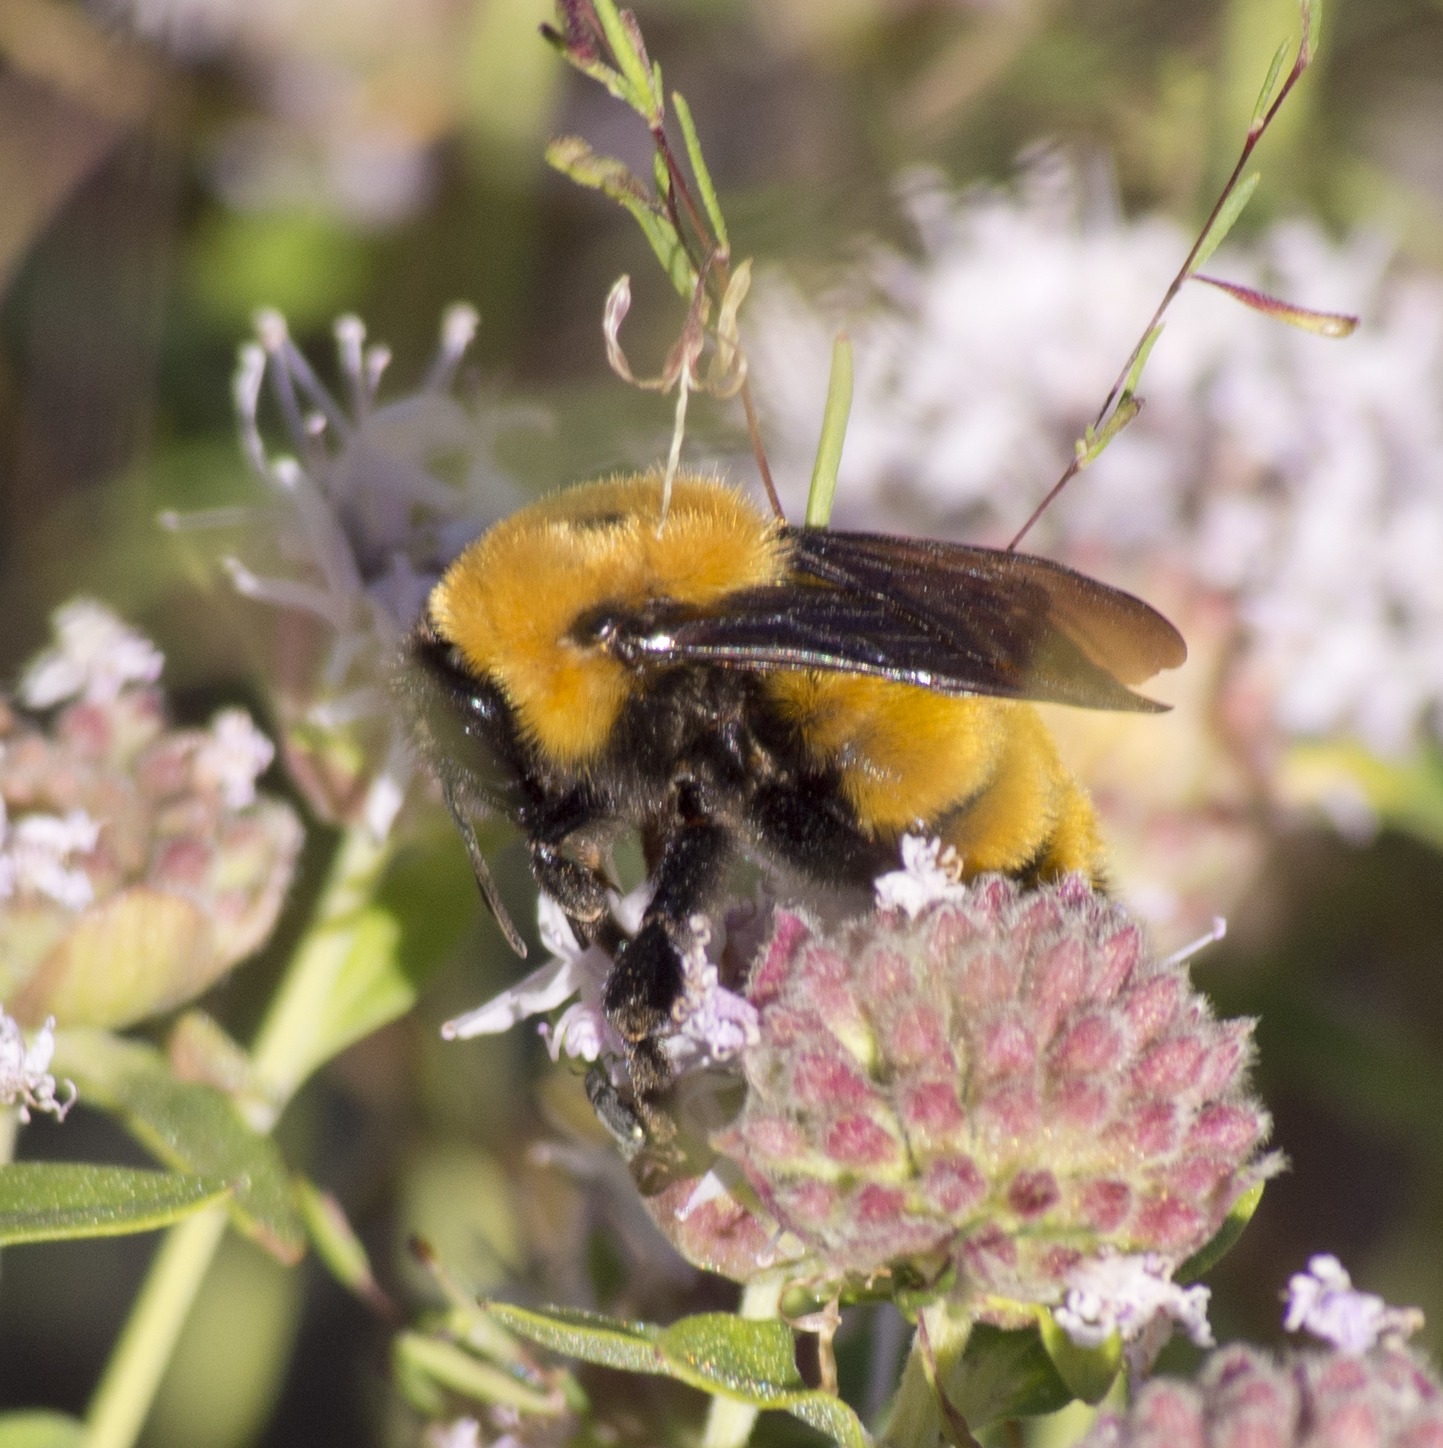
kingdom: Animalia
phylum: Arthropoda
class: Insecta
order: Hymenoptera
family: Apidae
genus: Bombus
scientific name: Bombus fervidus
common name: Yellow bumble bee
